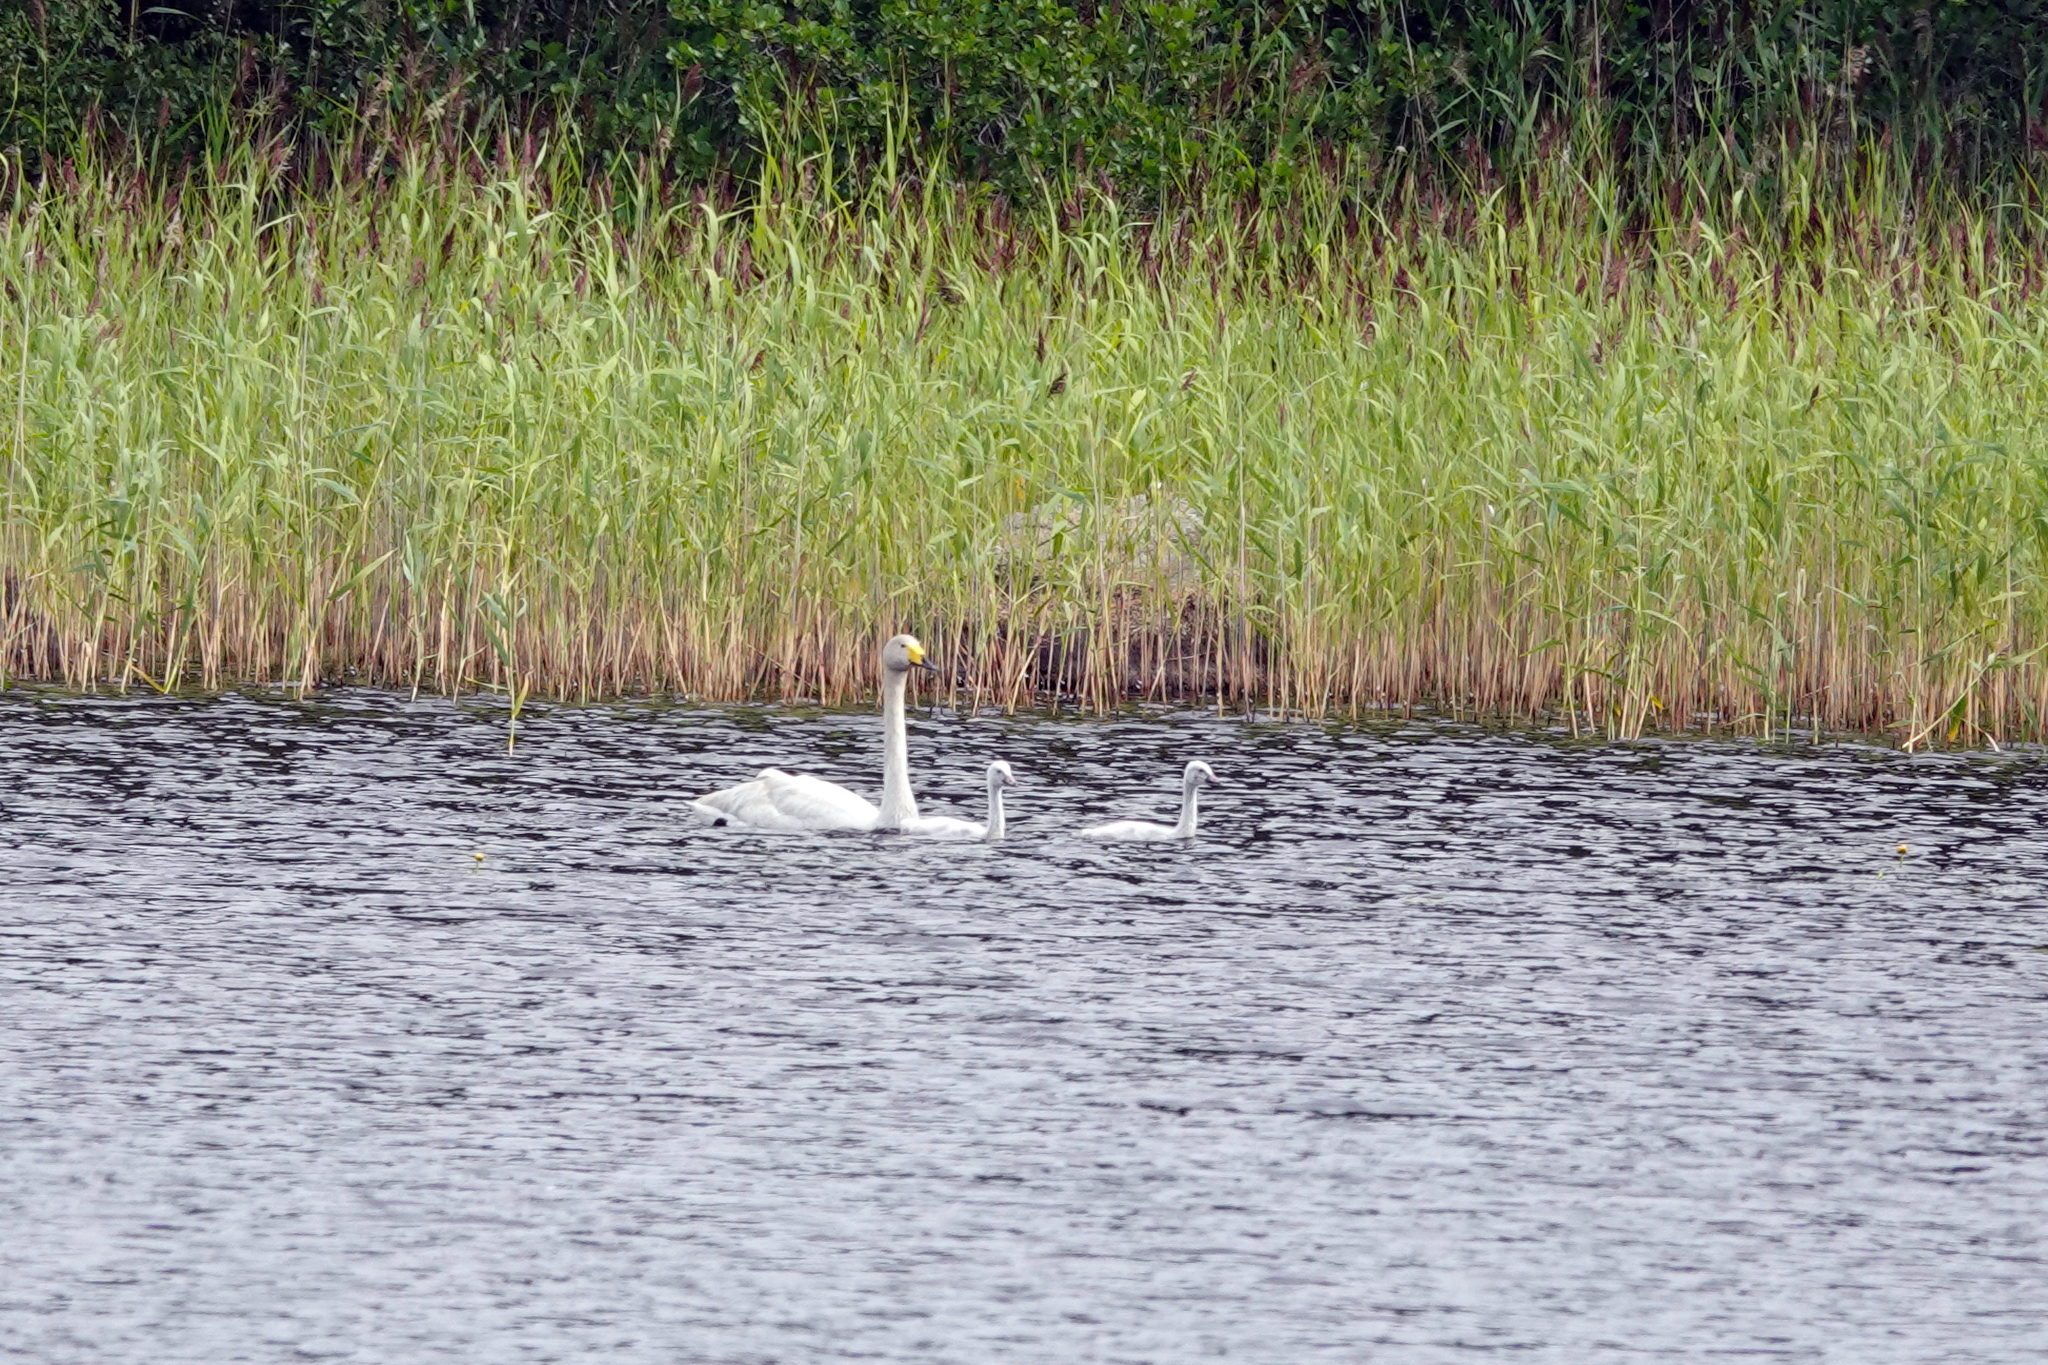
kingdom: Animalia
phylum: Chordata
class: Aves
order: Anseriformes
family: Anatidae
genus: Cygnus
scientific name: Cygnus cygnus
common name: Whooper swan
